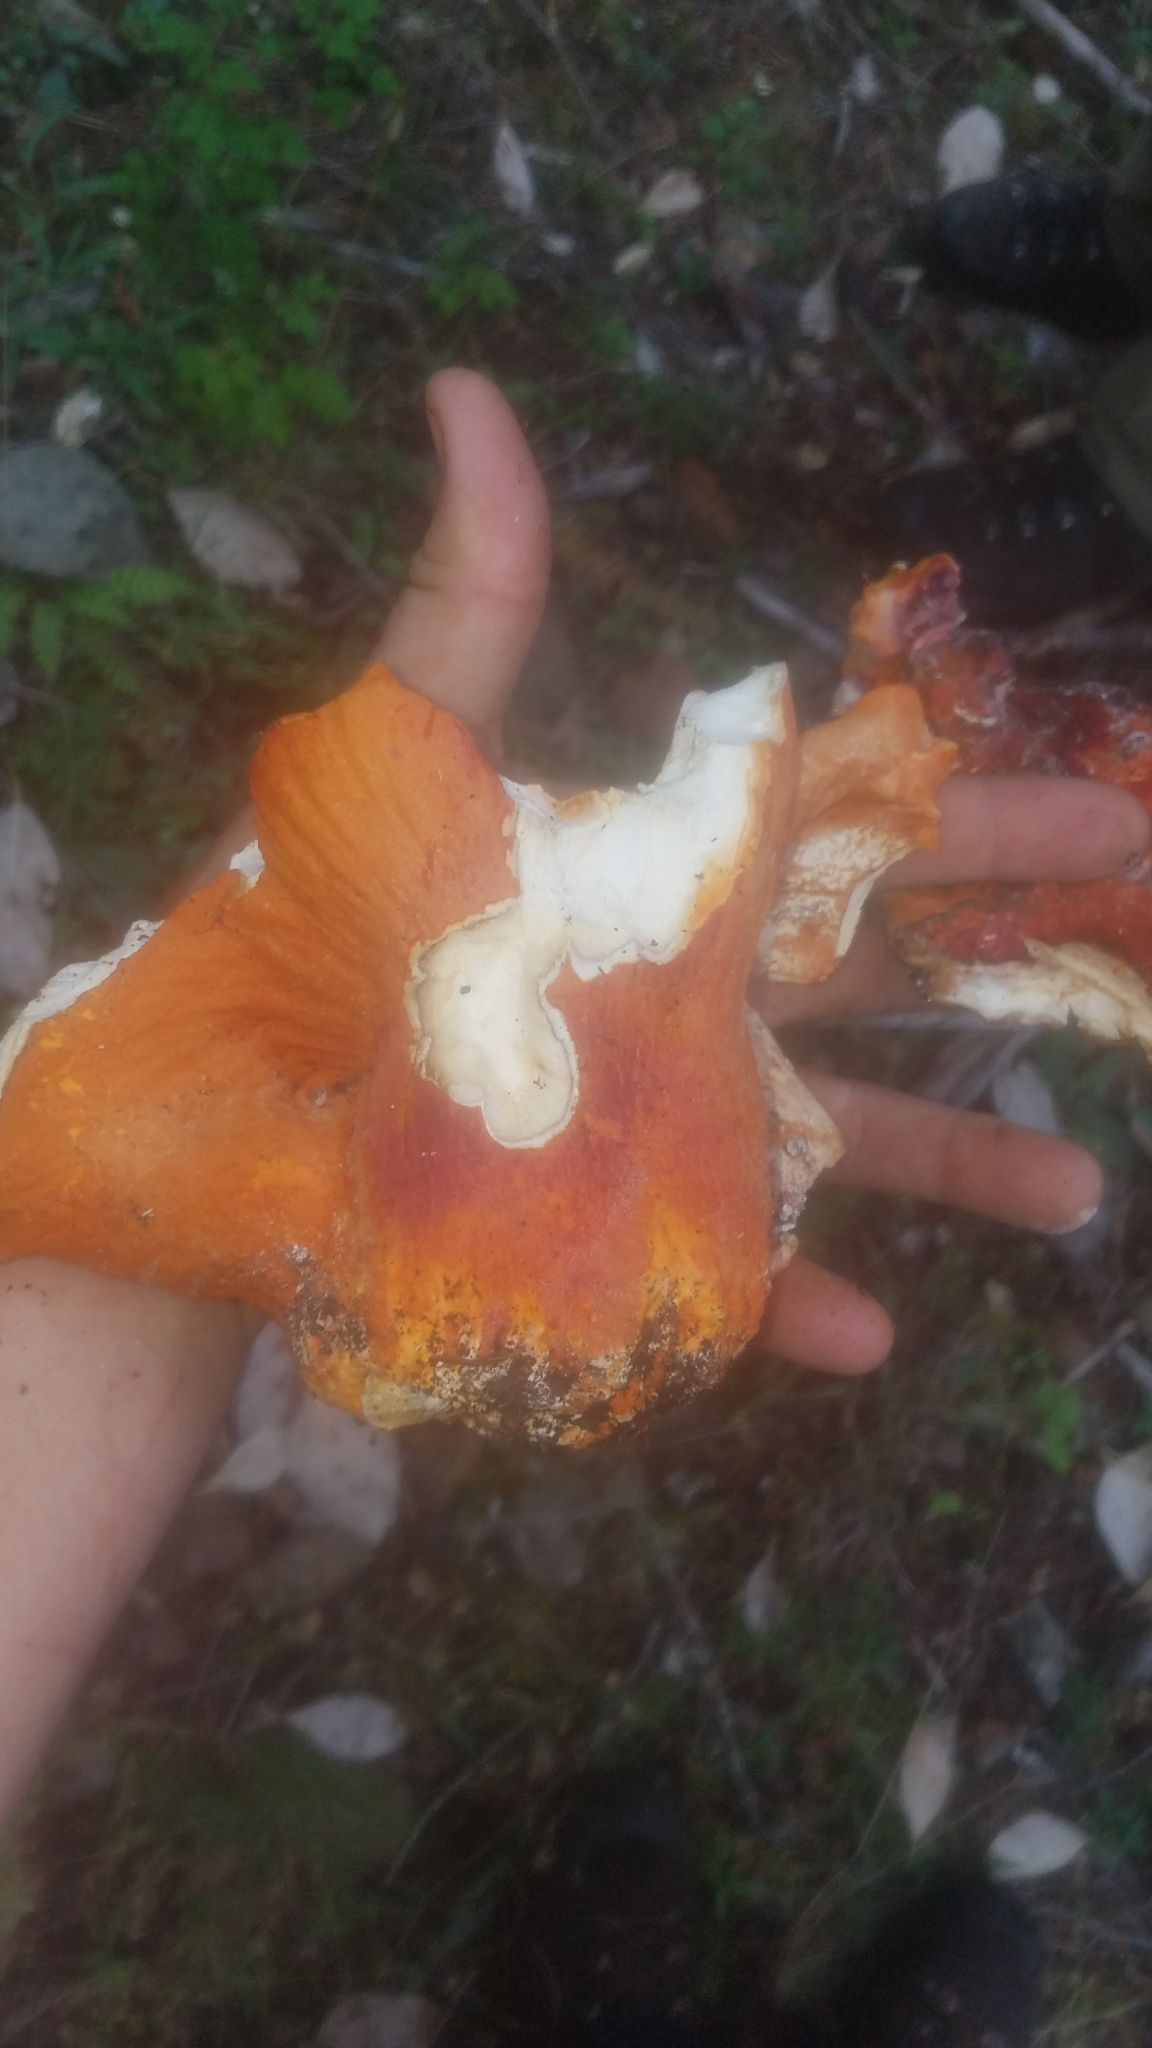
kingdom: Fungi
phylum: Ascomycota
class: Sordariomycetes
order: Hypocreales
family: Hypocreaceae
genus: Hypomyces
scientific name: Hypomyces lactifluorum
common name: Lobster mushroom
